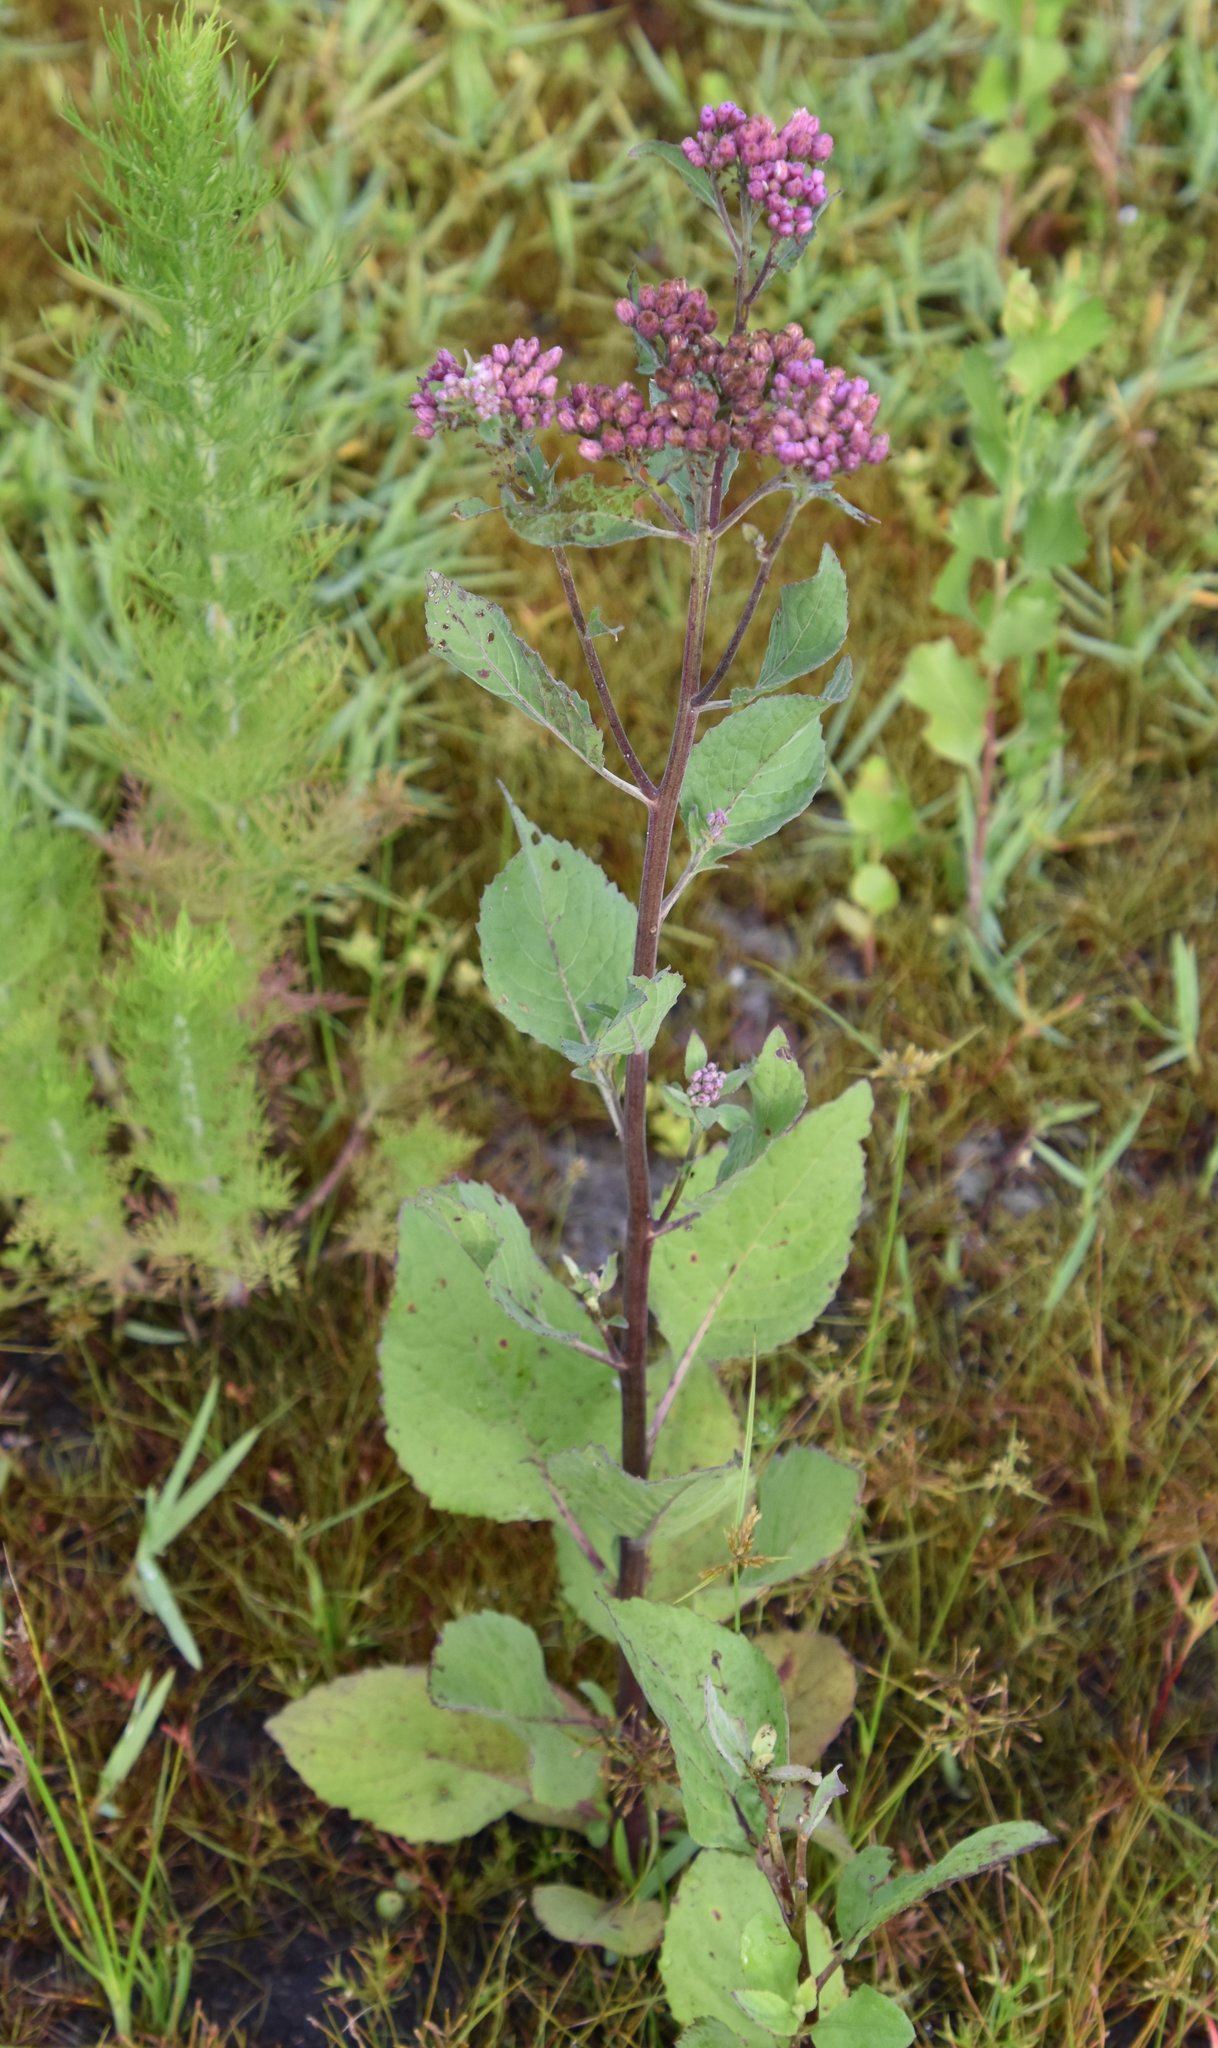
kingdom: Plantae
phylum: Tracheophyta
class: Magnoliopsida
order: Asterales
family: Asteraceae
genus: Pluchea
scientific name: Pluchea odorata
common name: Saltmarsh fleabane
